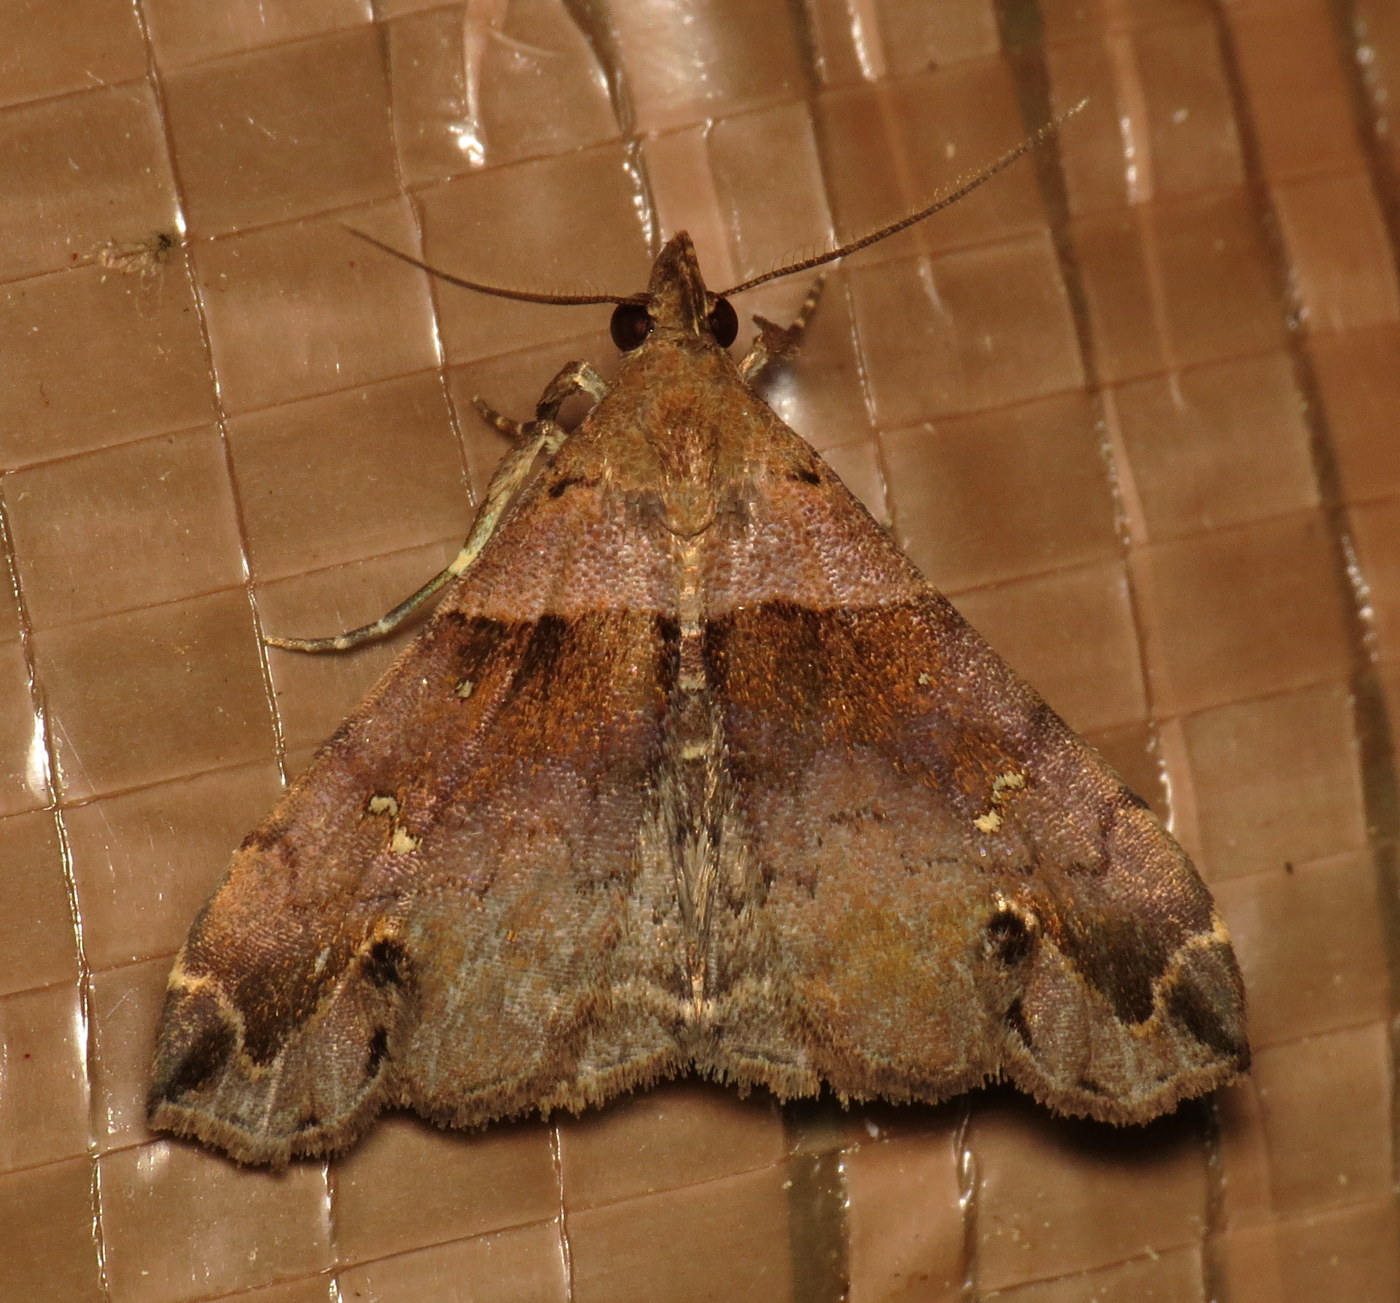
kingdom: Animalia
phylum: Arthropoda
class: Insecta
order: Lepidoptera
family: Erebidae
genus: Lascoria
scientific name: Lascoria ambigualis
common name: Ambiguous moth
